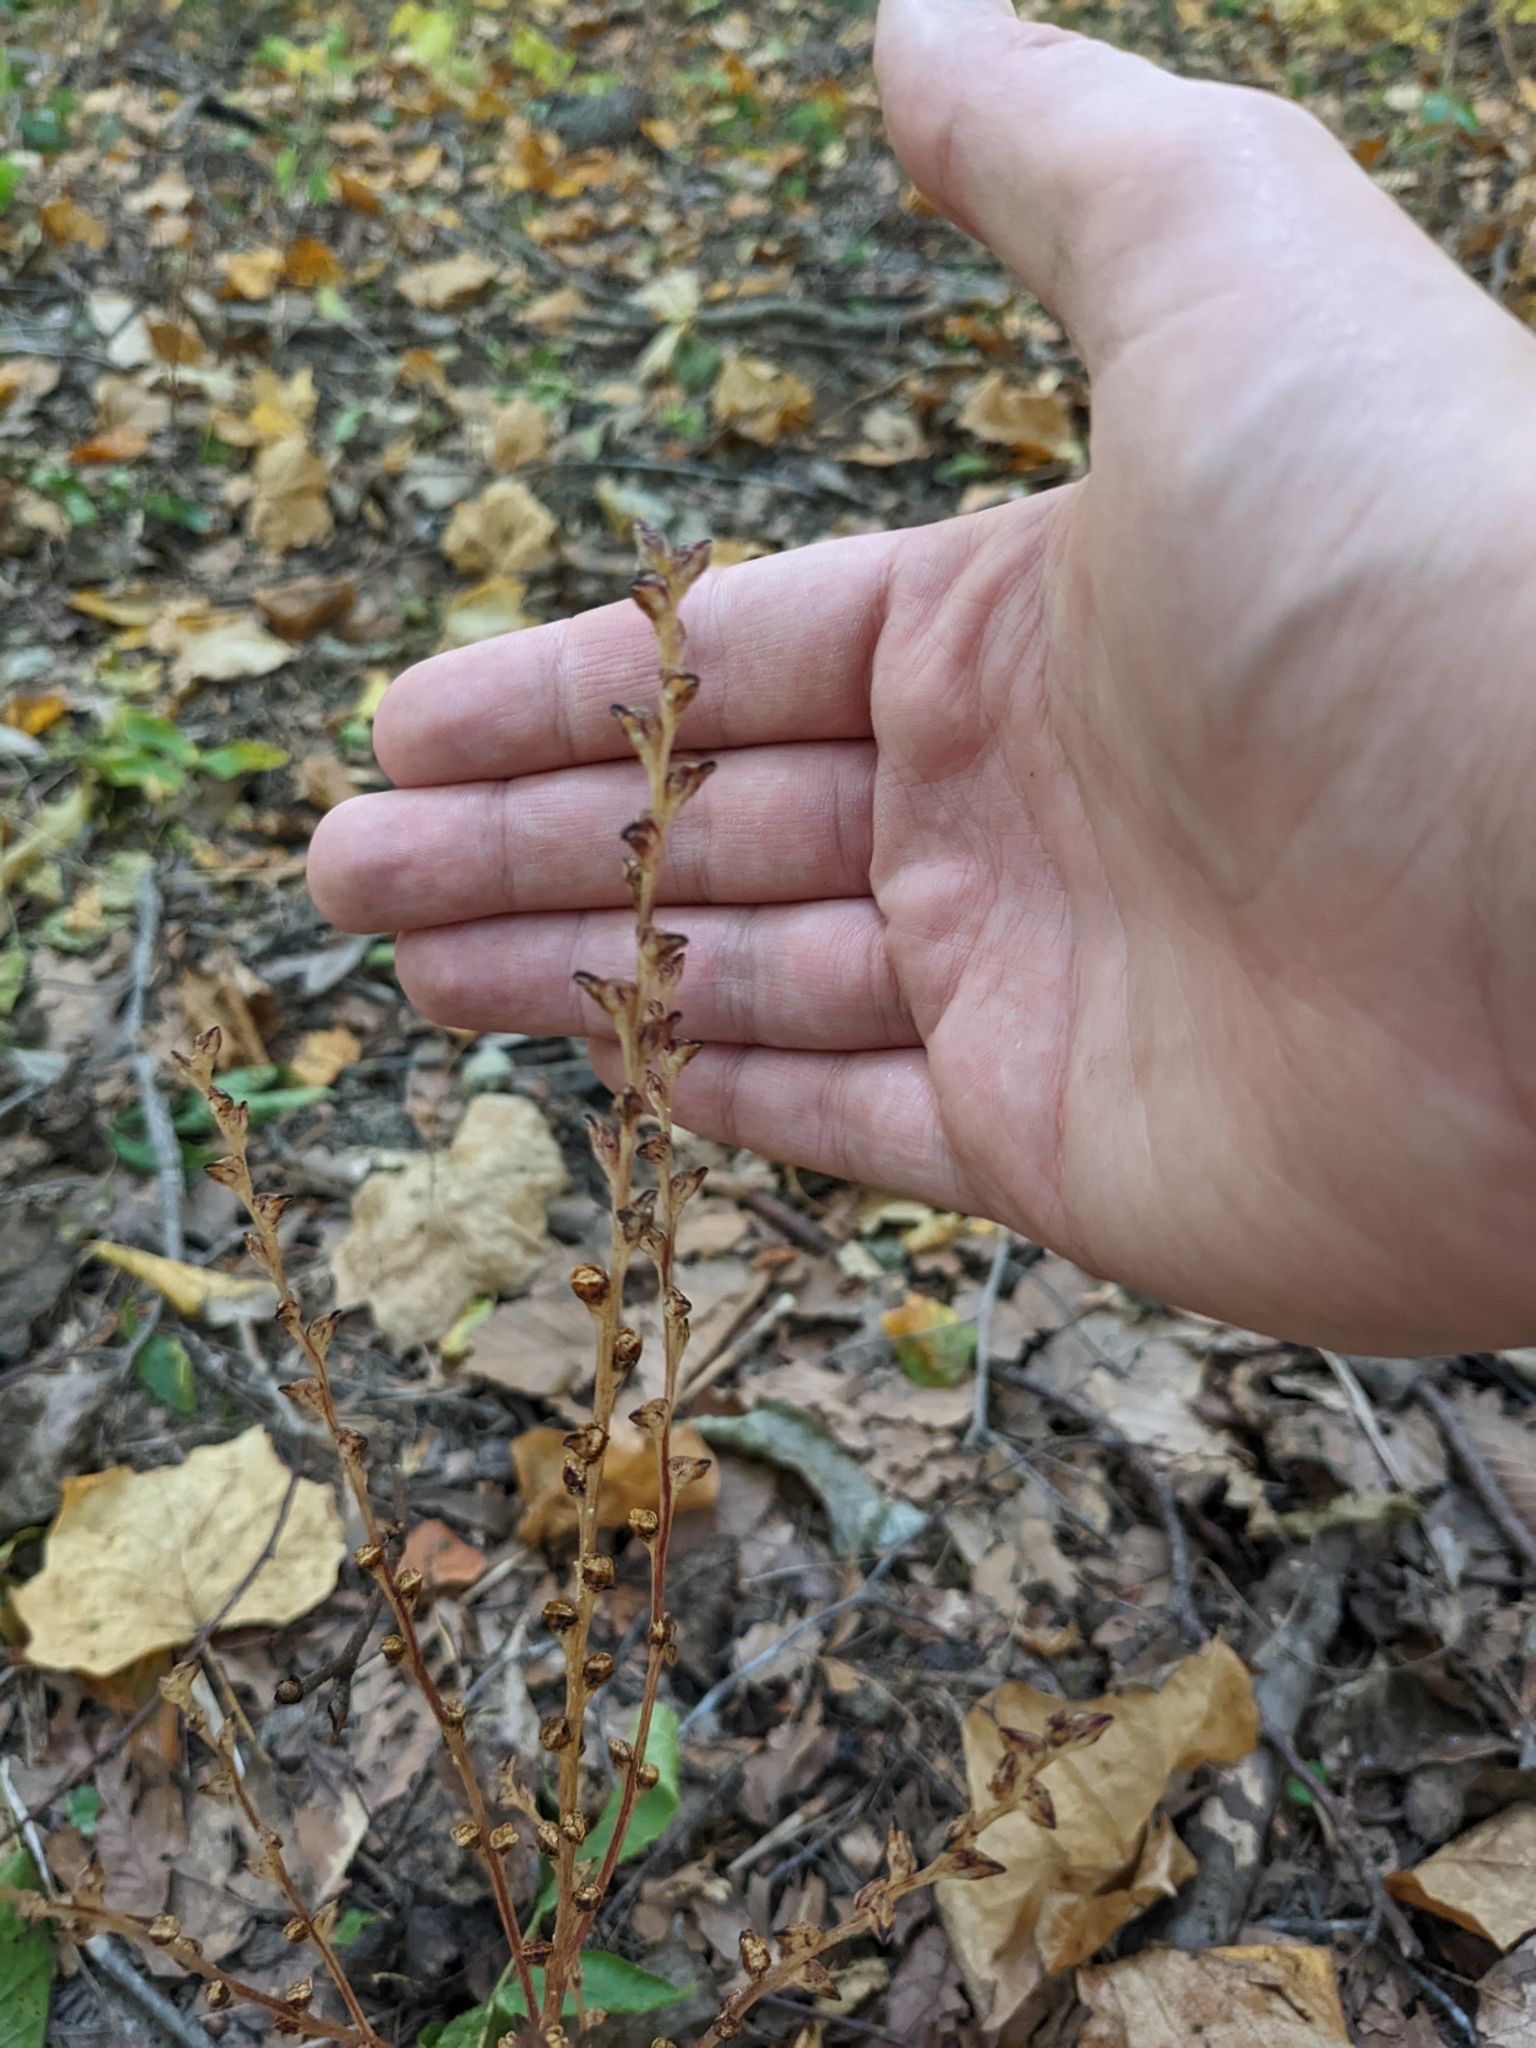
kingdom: Plantae
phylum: Tracheophyta
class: Magnoliopsida
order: Lamiales
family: Orobanchaceae
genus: Epifagus
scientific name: Epifagus virginiana
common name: Beechdrops
